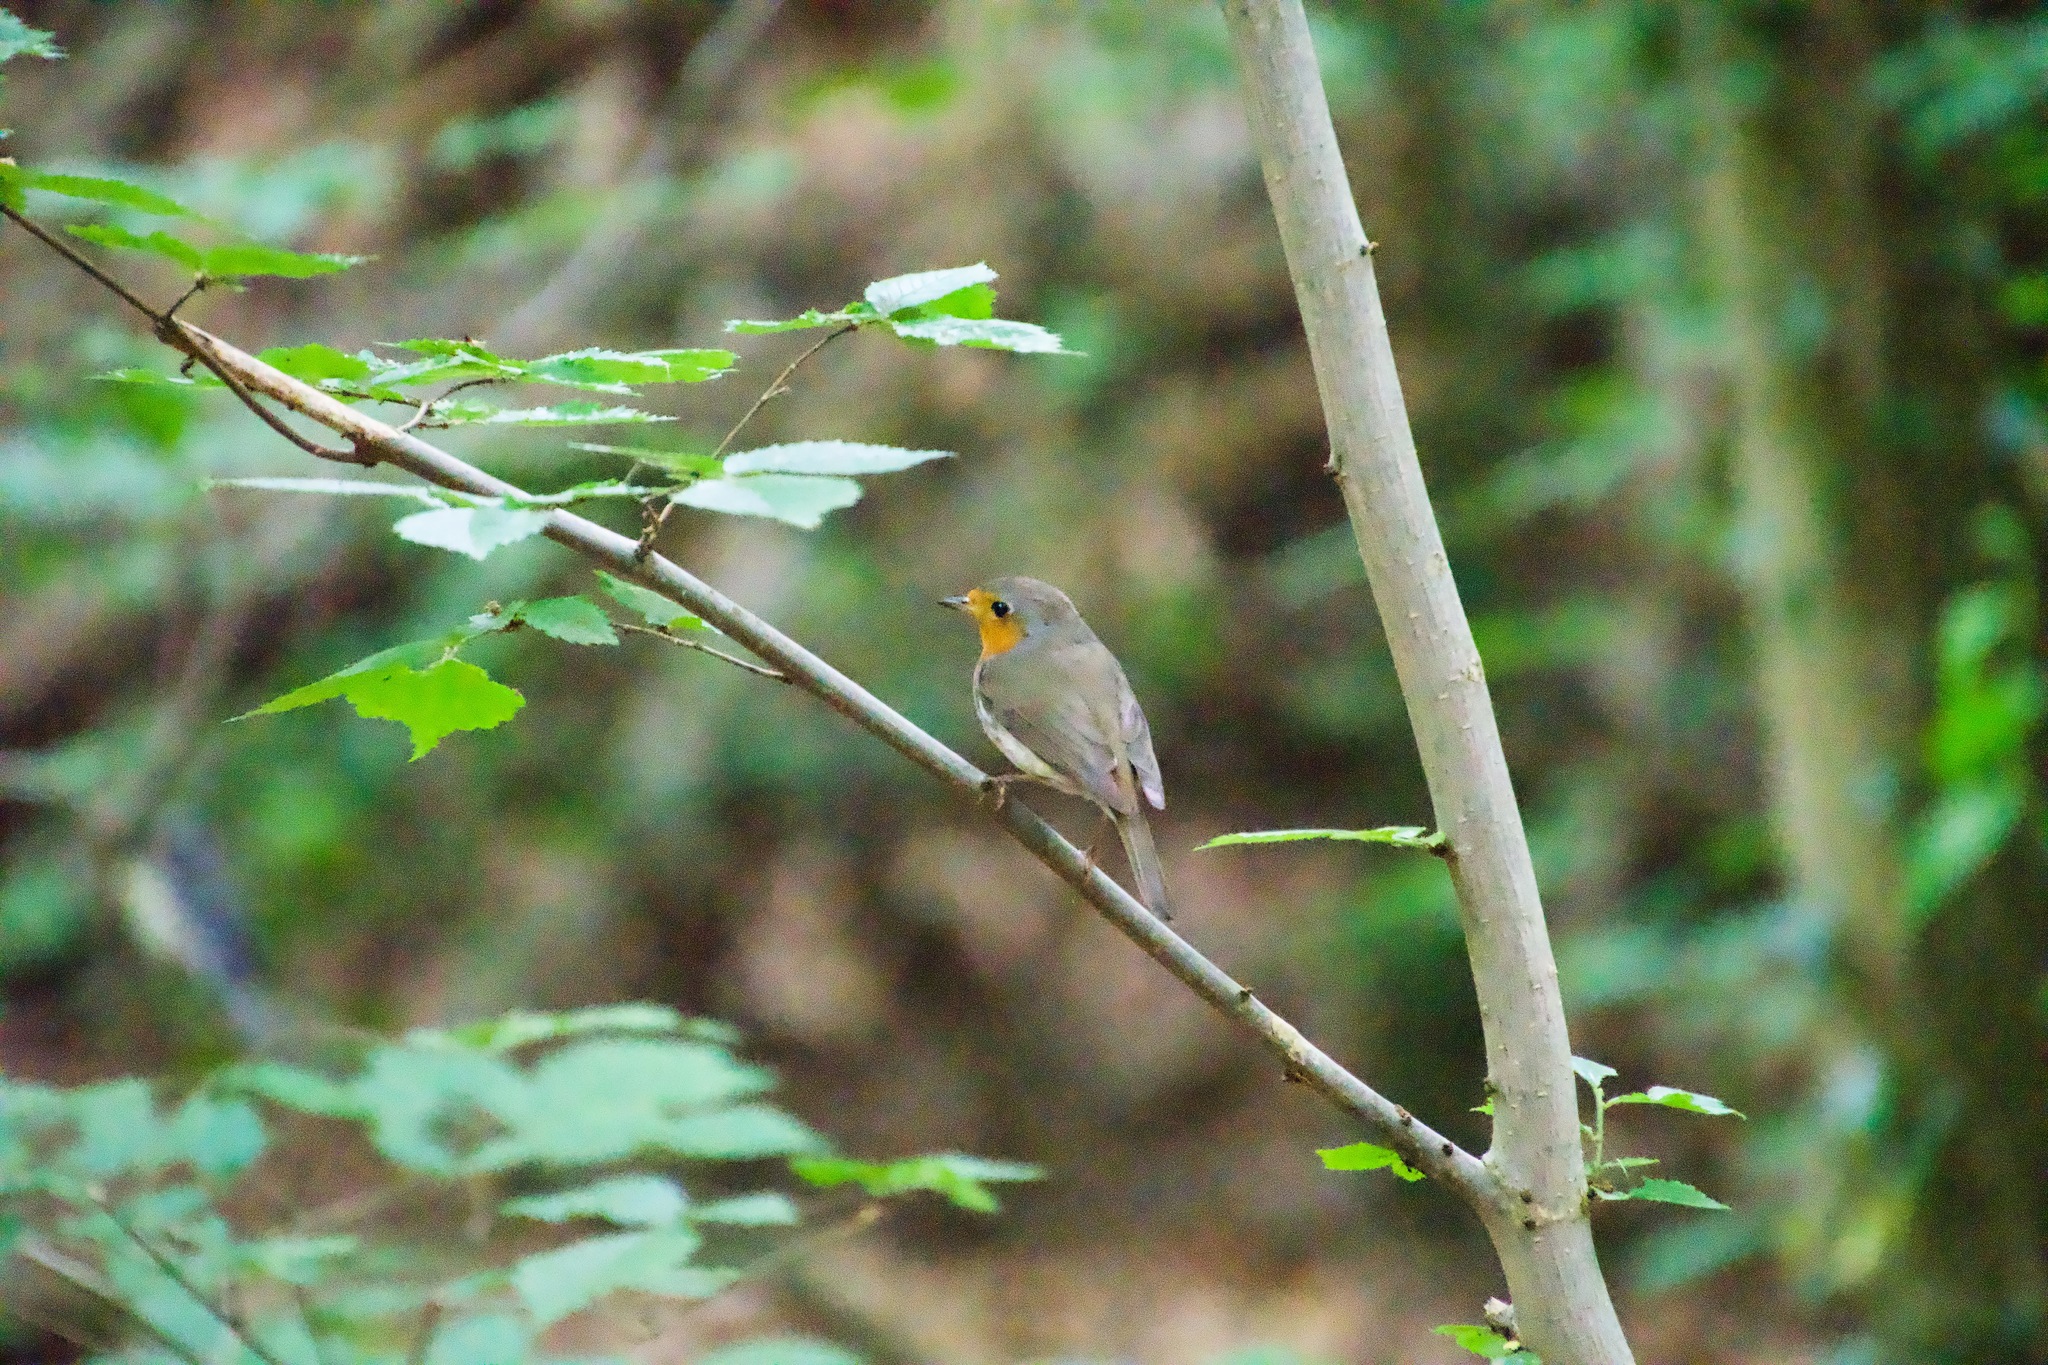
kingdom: Animalia
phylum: Chordata
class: Aves
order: Passeriformes
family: Muscicapidae
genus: Erithacus
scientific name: Erithacus rubecula
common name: European robin
